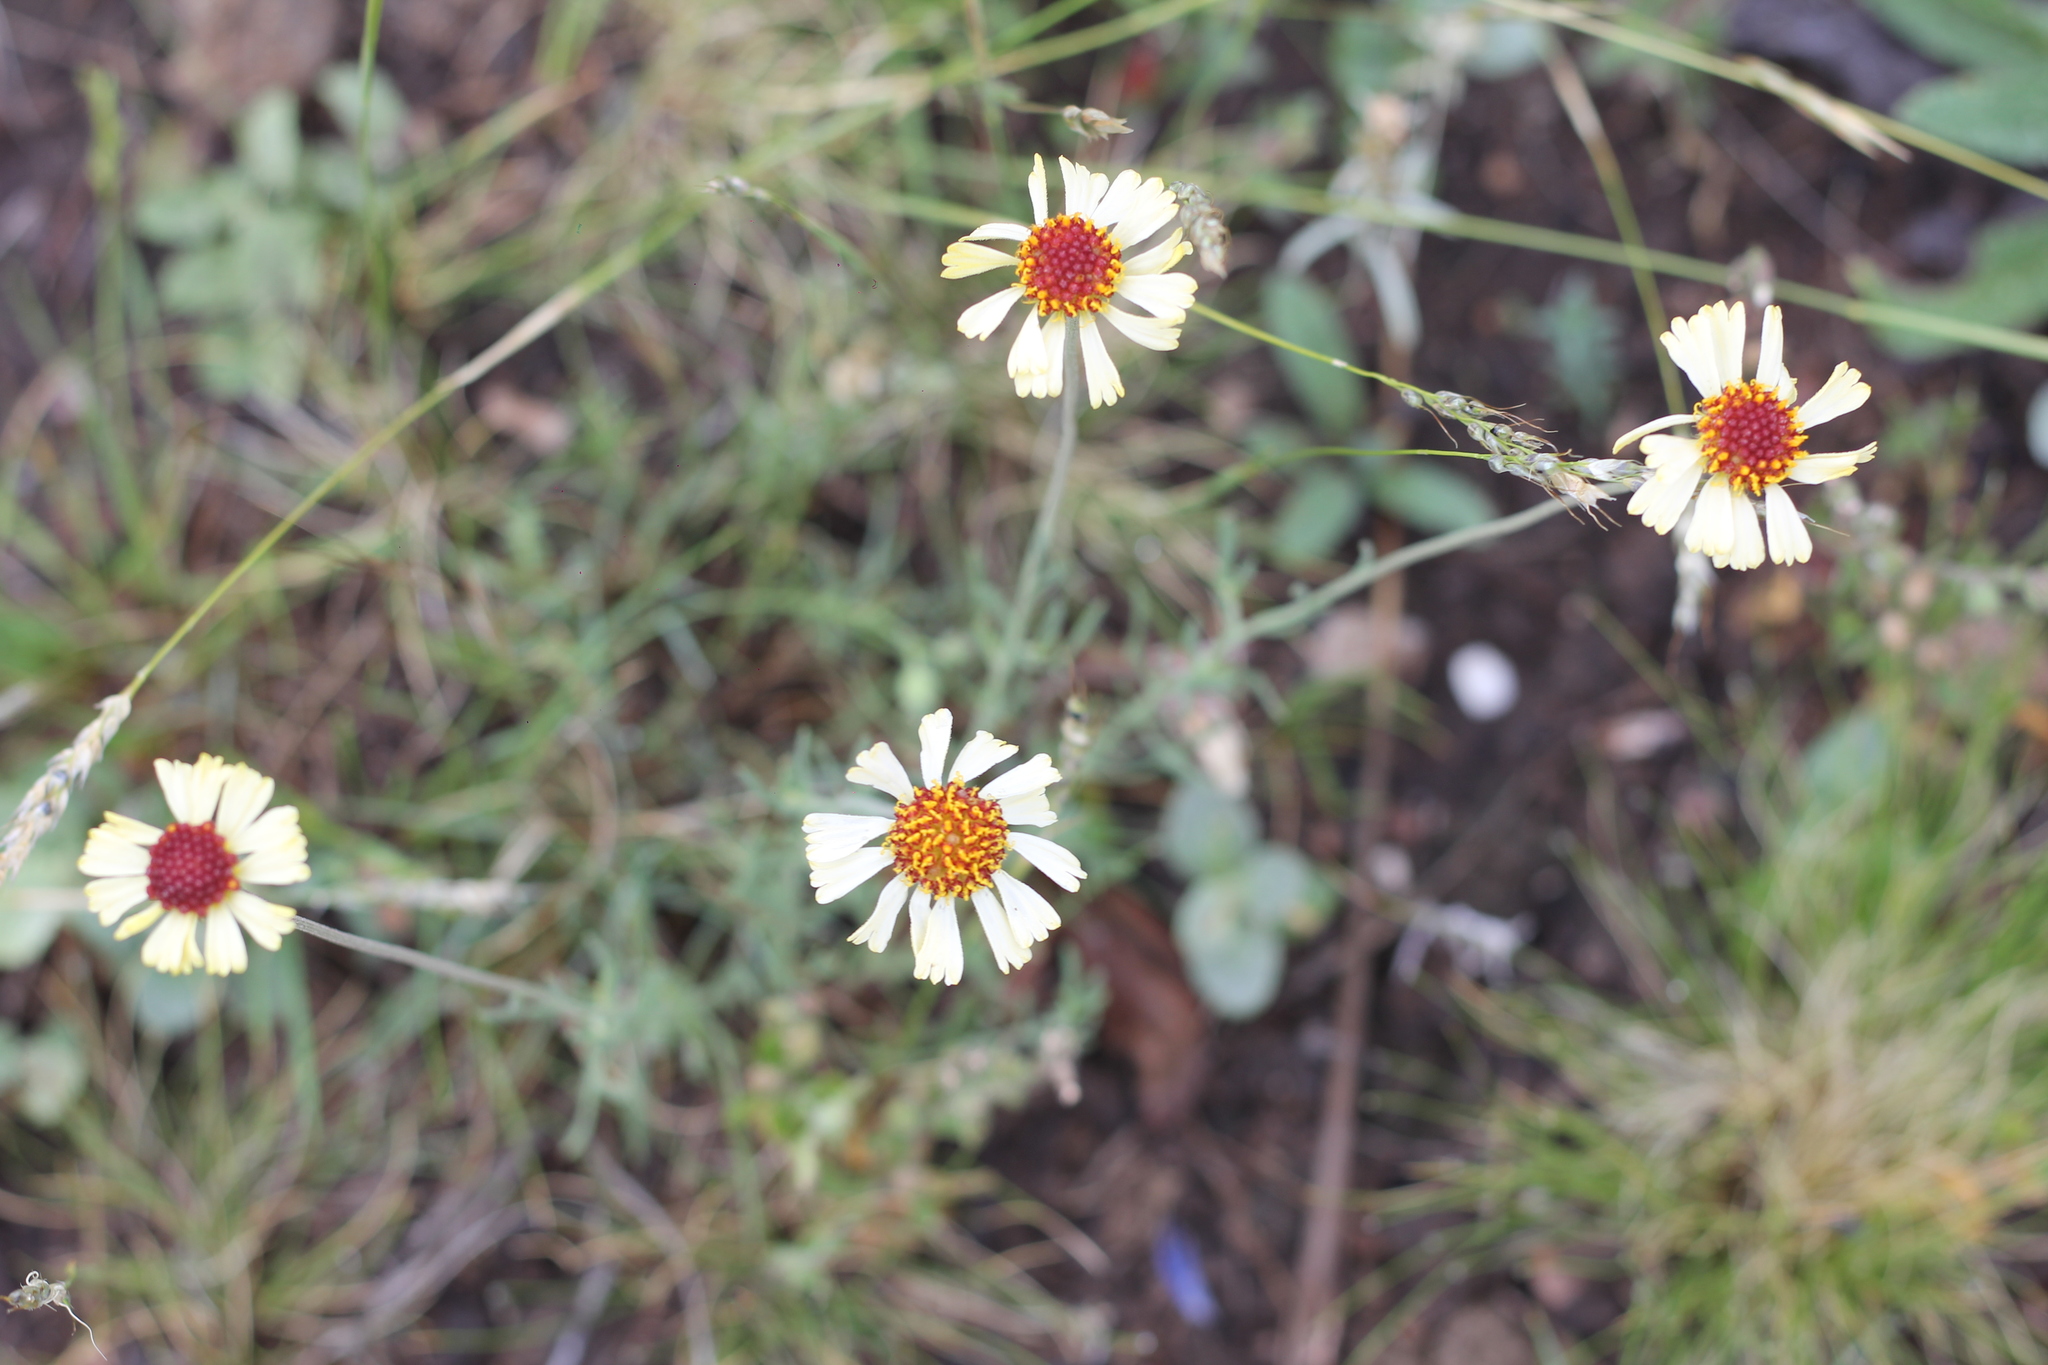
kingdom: Plantae
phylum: Tracheophyta
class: Magnoliopsida
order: Asterales
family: Asteraceae
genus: Helenium
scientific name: Helenium uniflorum
